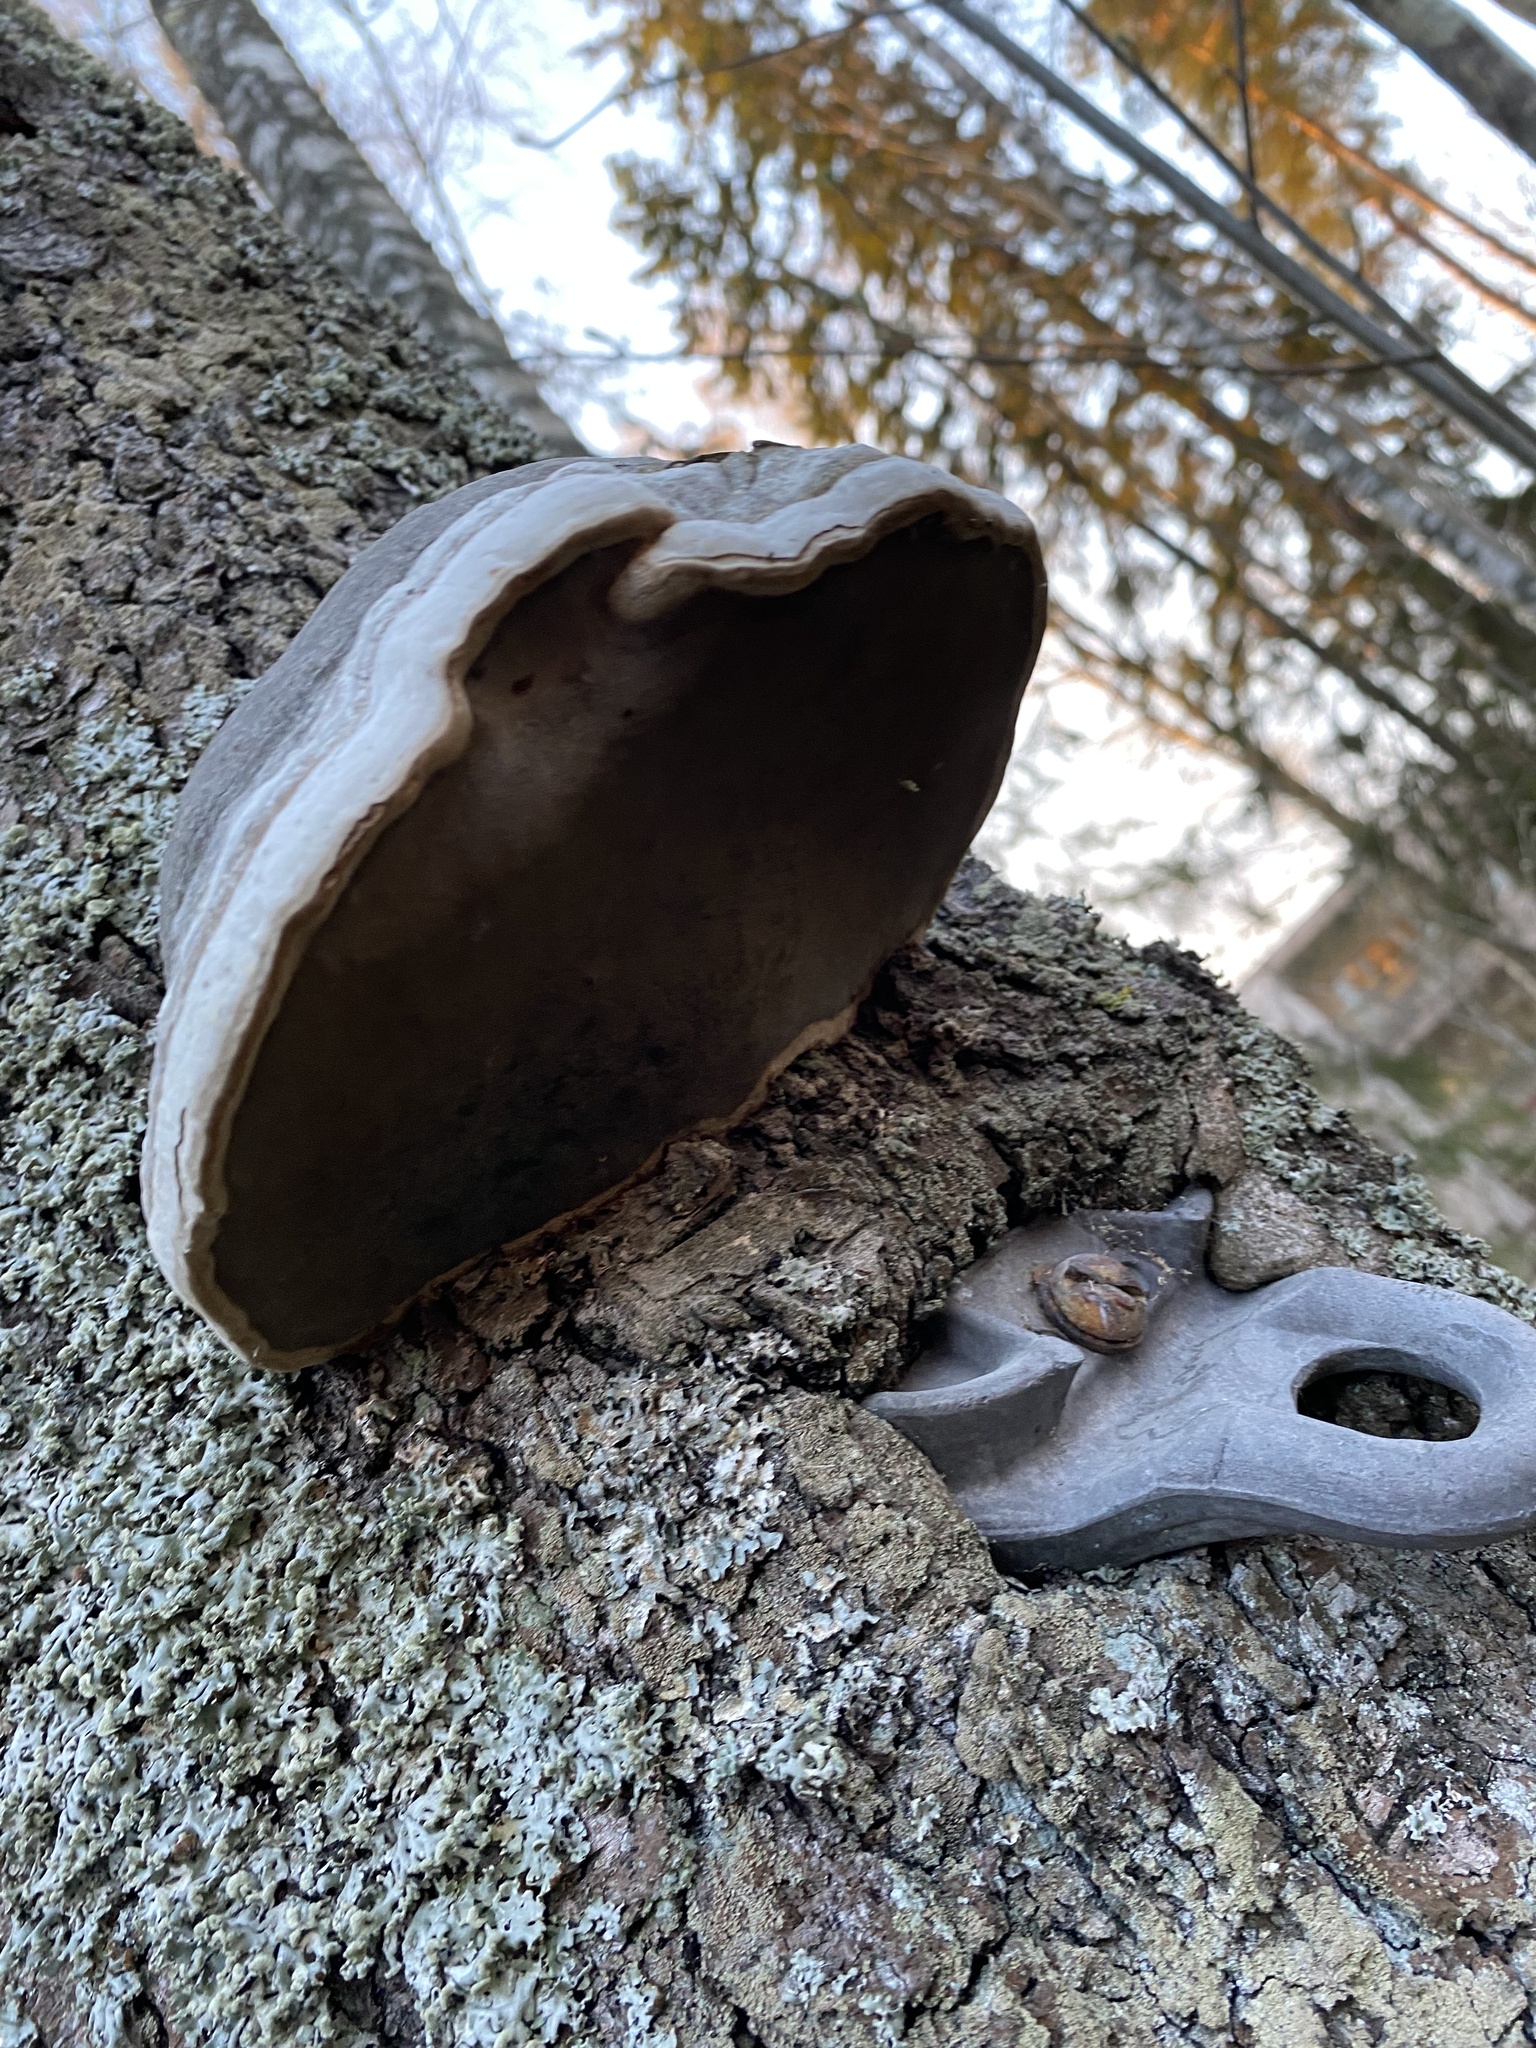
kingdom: Fungi
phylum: Basidiomycota
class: Agaricomycetes
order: Polyporales
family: Polyporaceae
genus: Fomes
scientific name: Fomes fomentarius
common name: Hoof fungus
